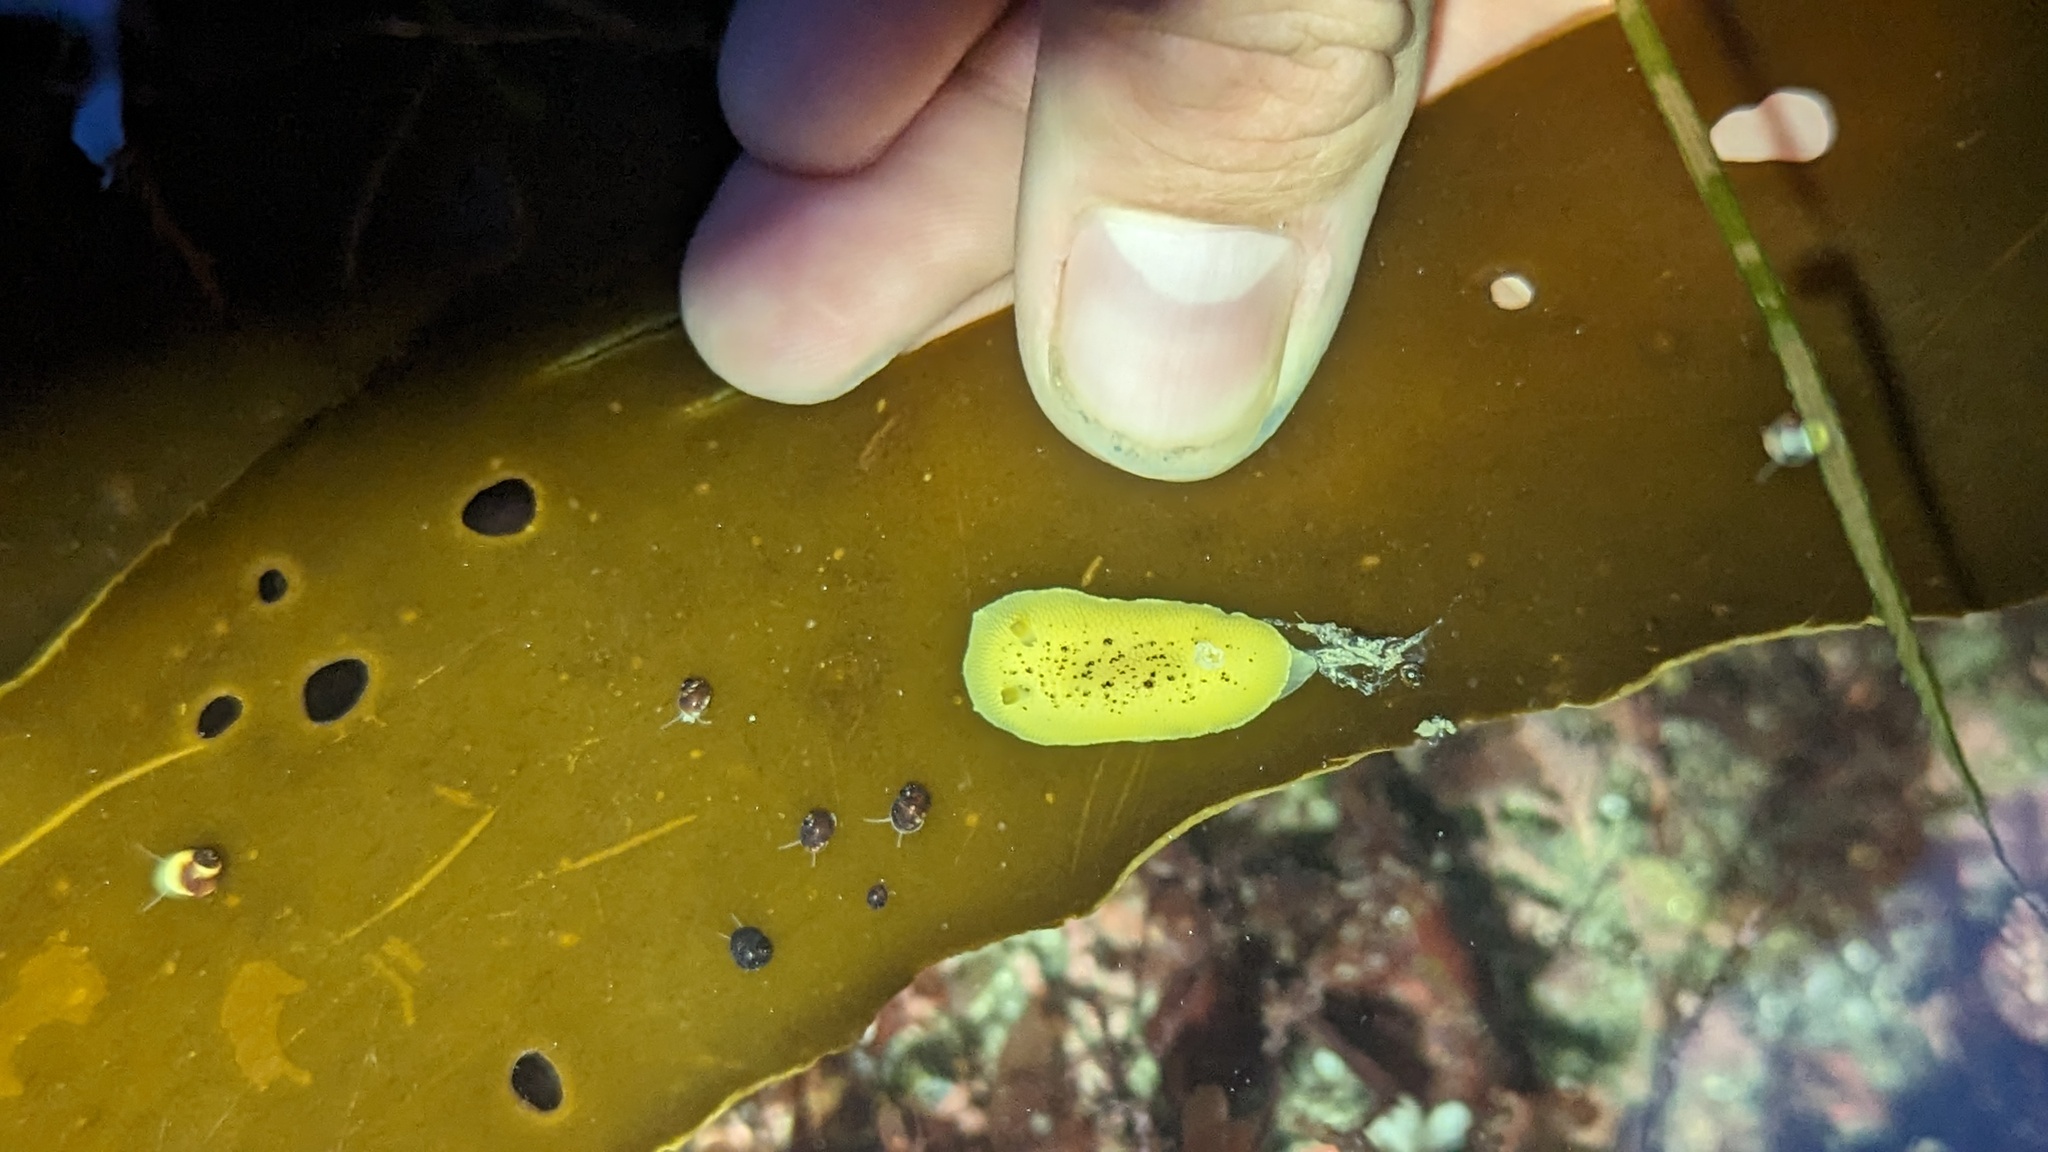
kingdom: Animalia
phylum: Mollusca
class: Gastropoda
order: Nudibranchia
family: Discodorididae
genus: Peltodoris
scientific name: Peltodoris nobilis
